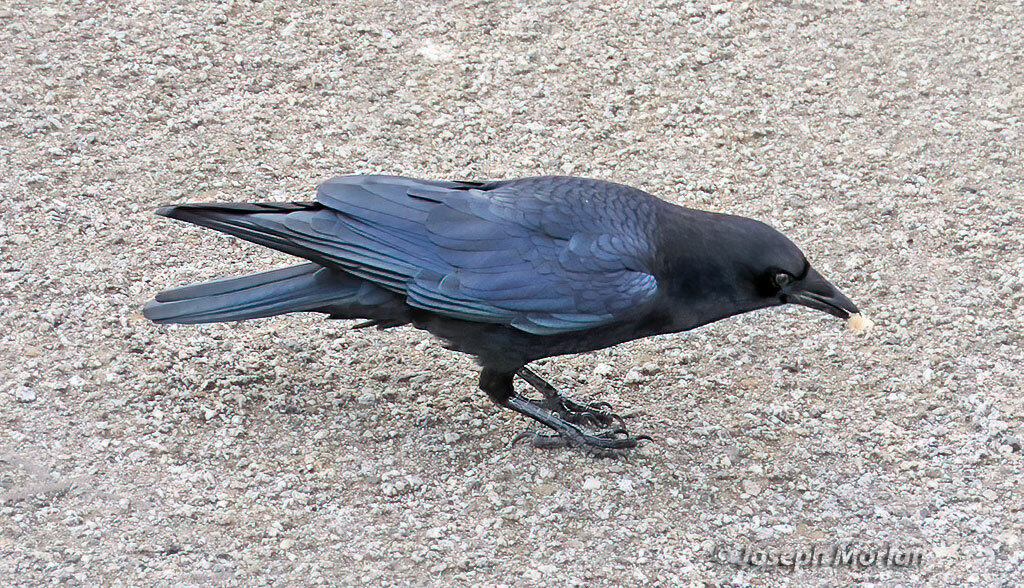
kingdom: Animalia
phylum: Chordata
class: Aves
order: Passeriformes
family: Corvidae
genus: Corvus
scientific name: Corvus brachyrhynchos
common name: American crow
